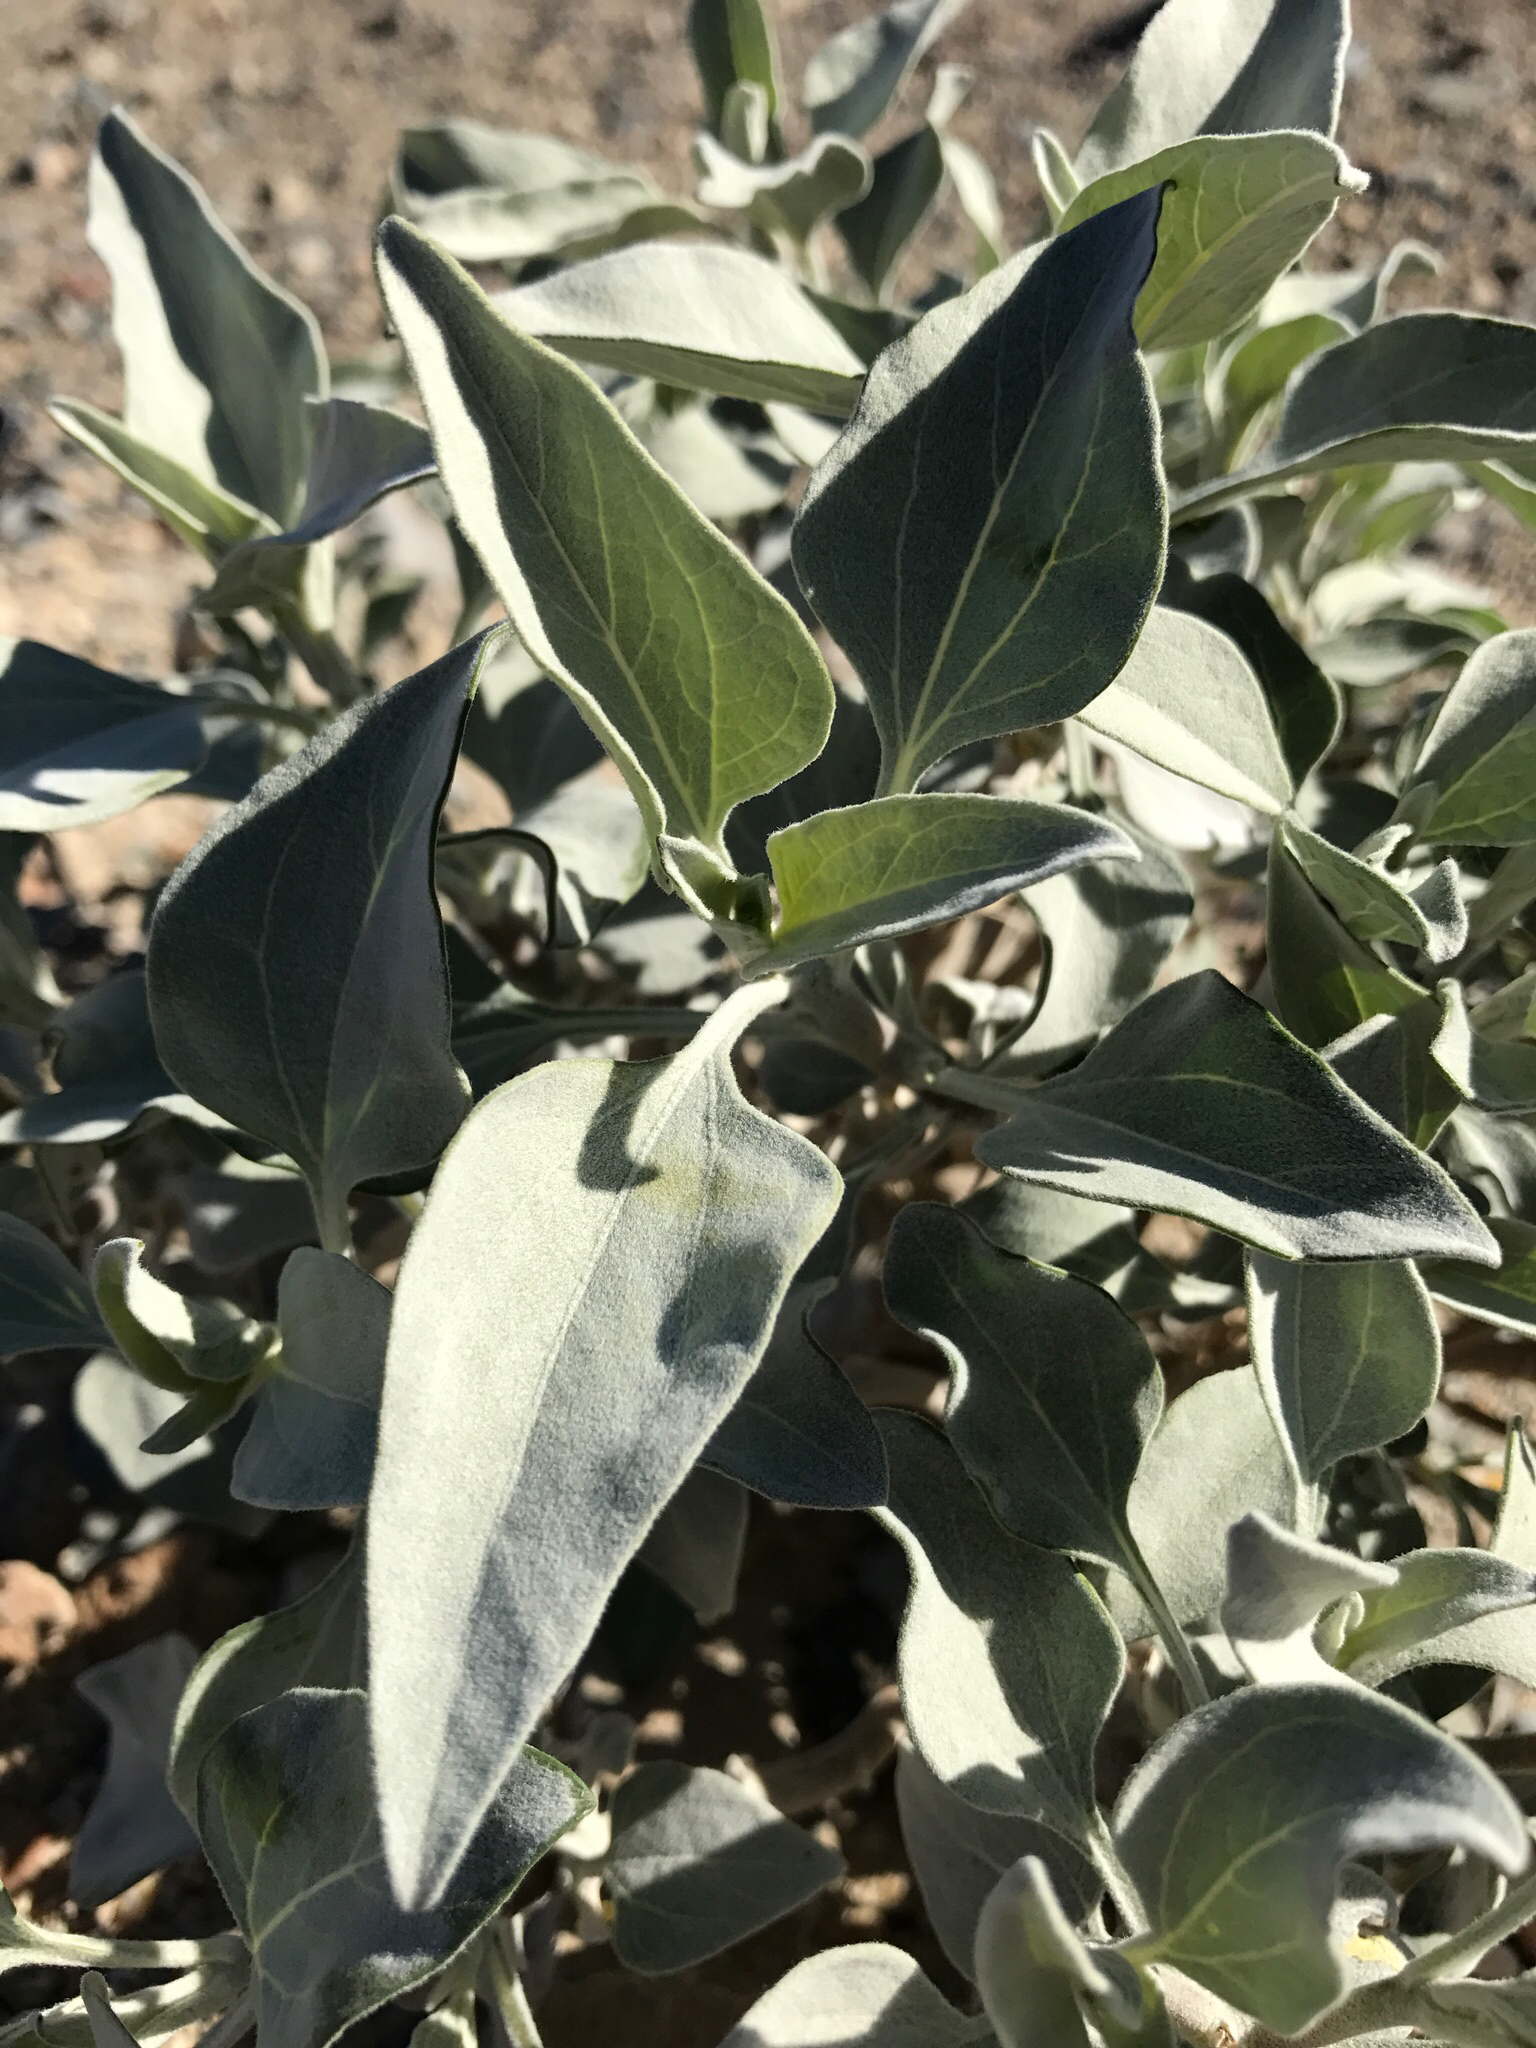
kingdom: Plantae
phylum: Tracheophyta
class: Magnoliopsida
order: Asterales
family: Asteraceae
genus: Encelia
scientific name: Encelia farinosa
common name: Brittlebush
